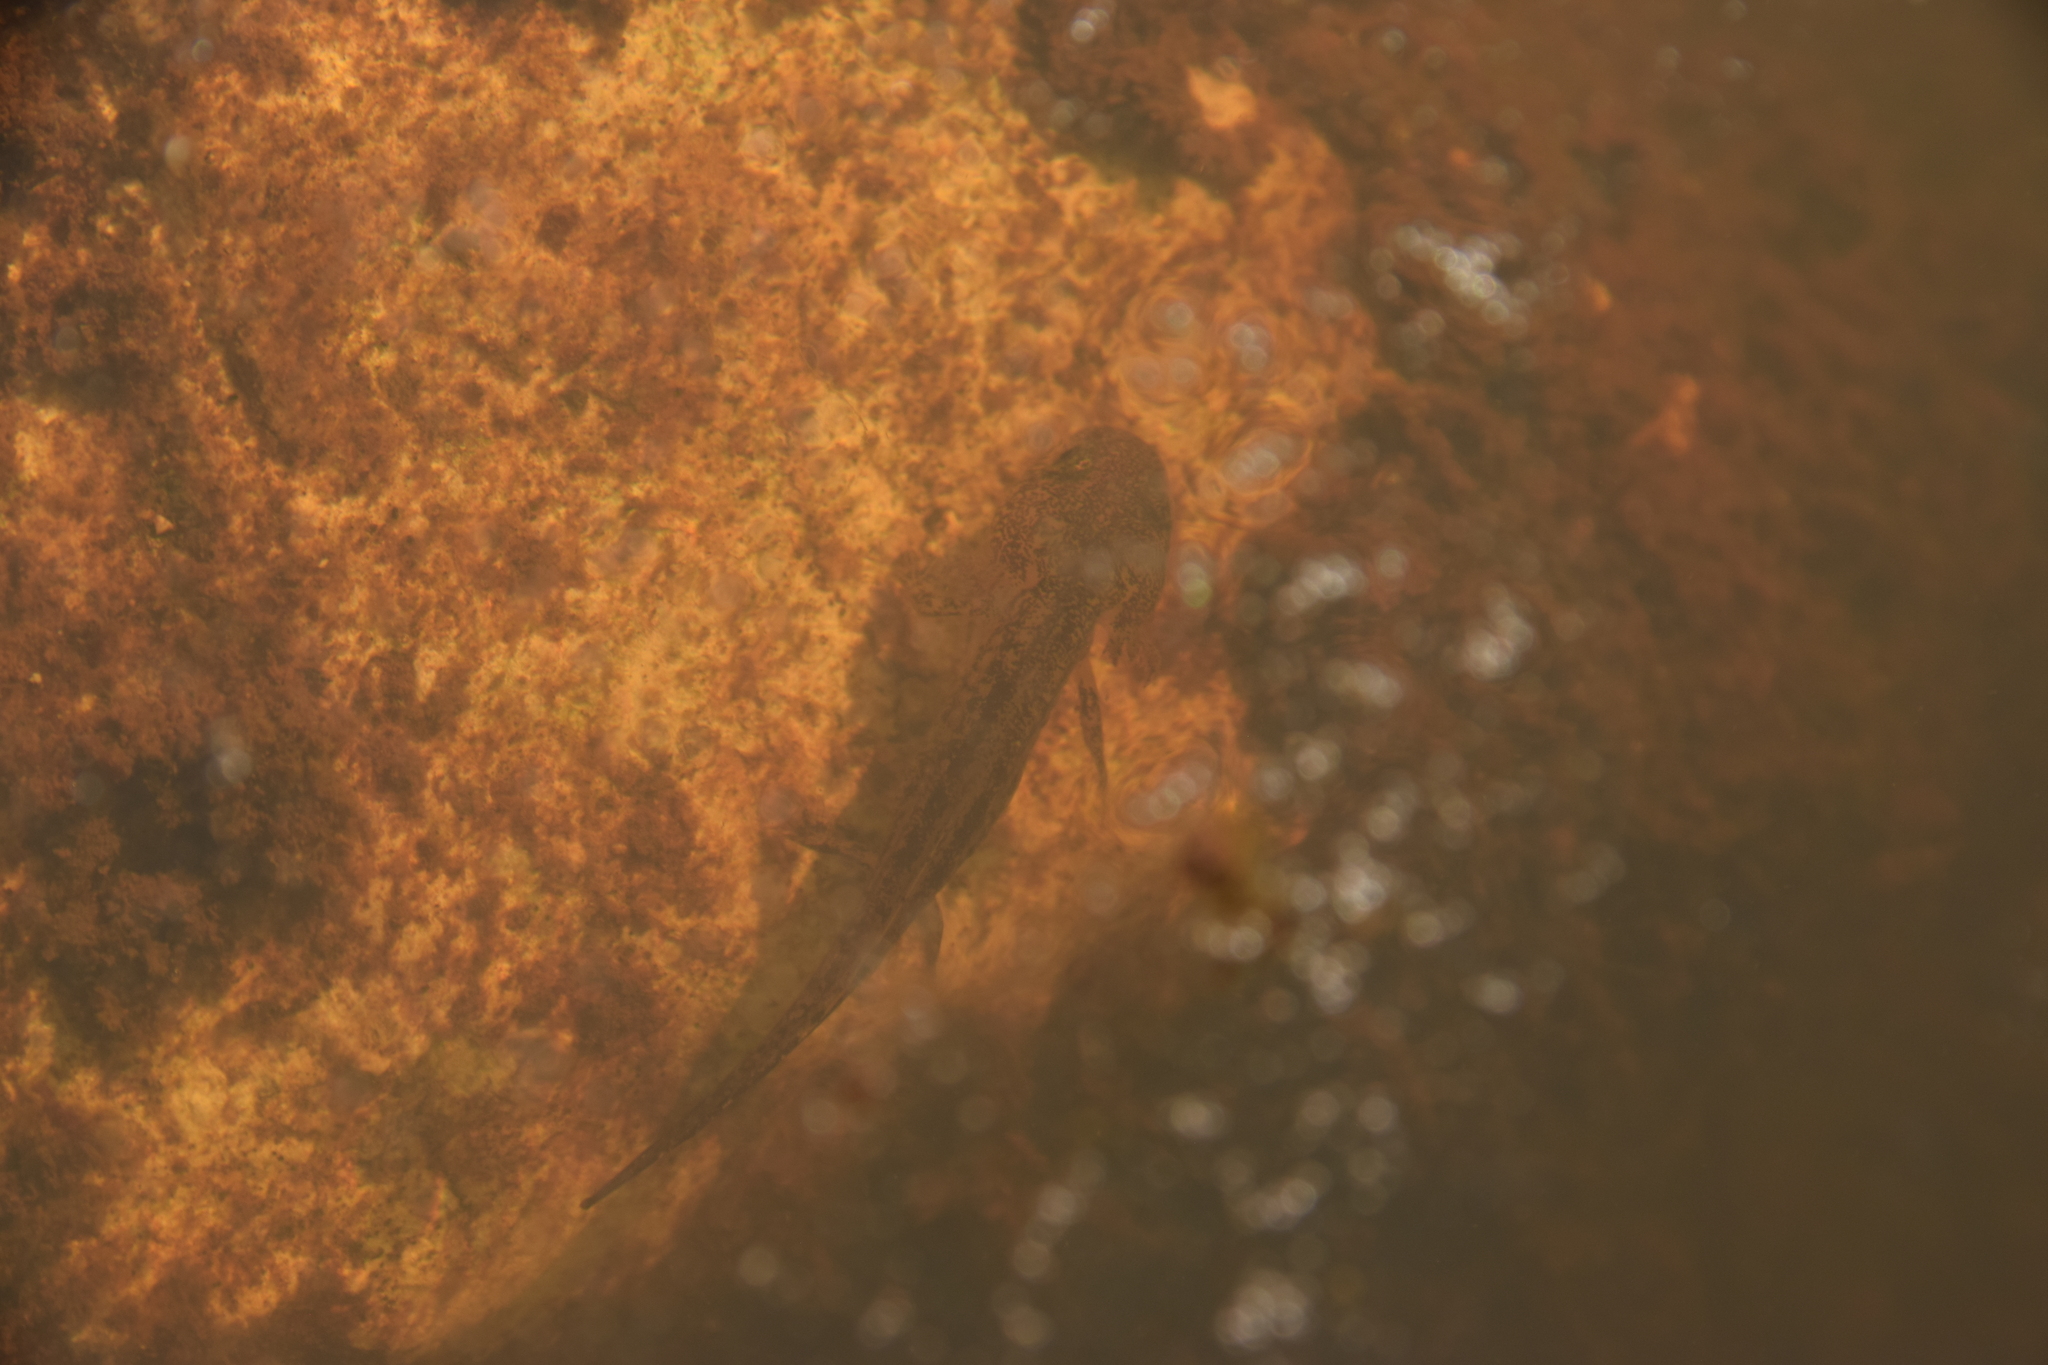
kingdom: Animalia
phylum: Chordata
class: Amphibia
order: Caudata
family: Salamandridae
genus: Salamandra
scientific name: Salamandra infraimmaculata
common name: Near-eastern fire salamander
